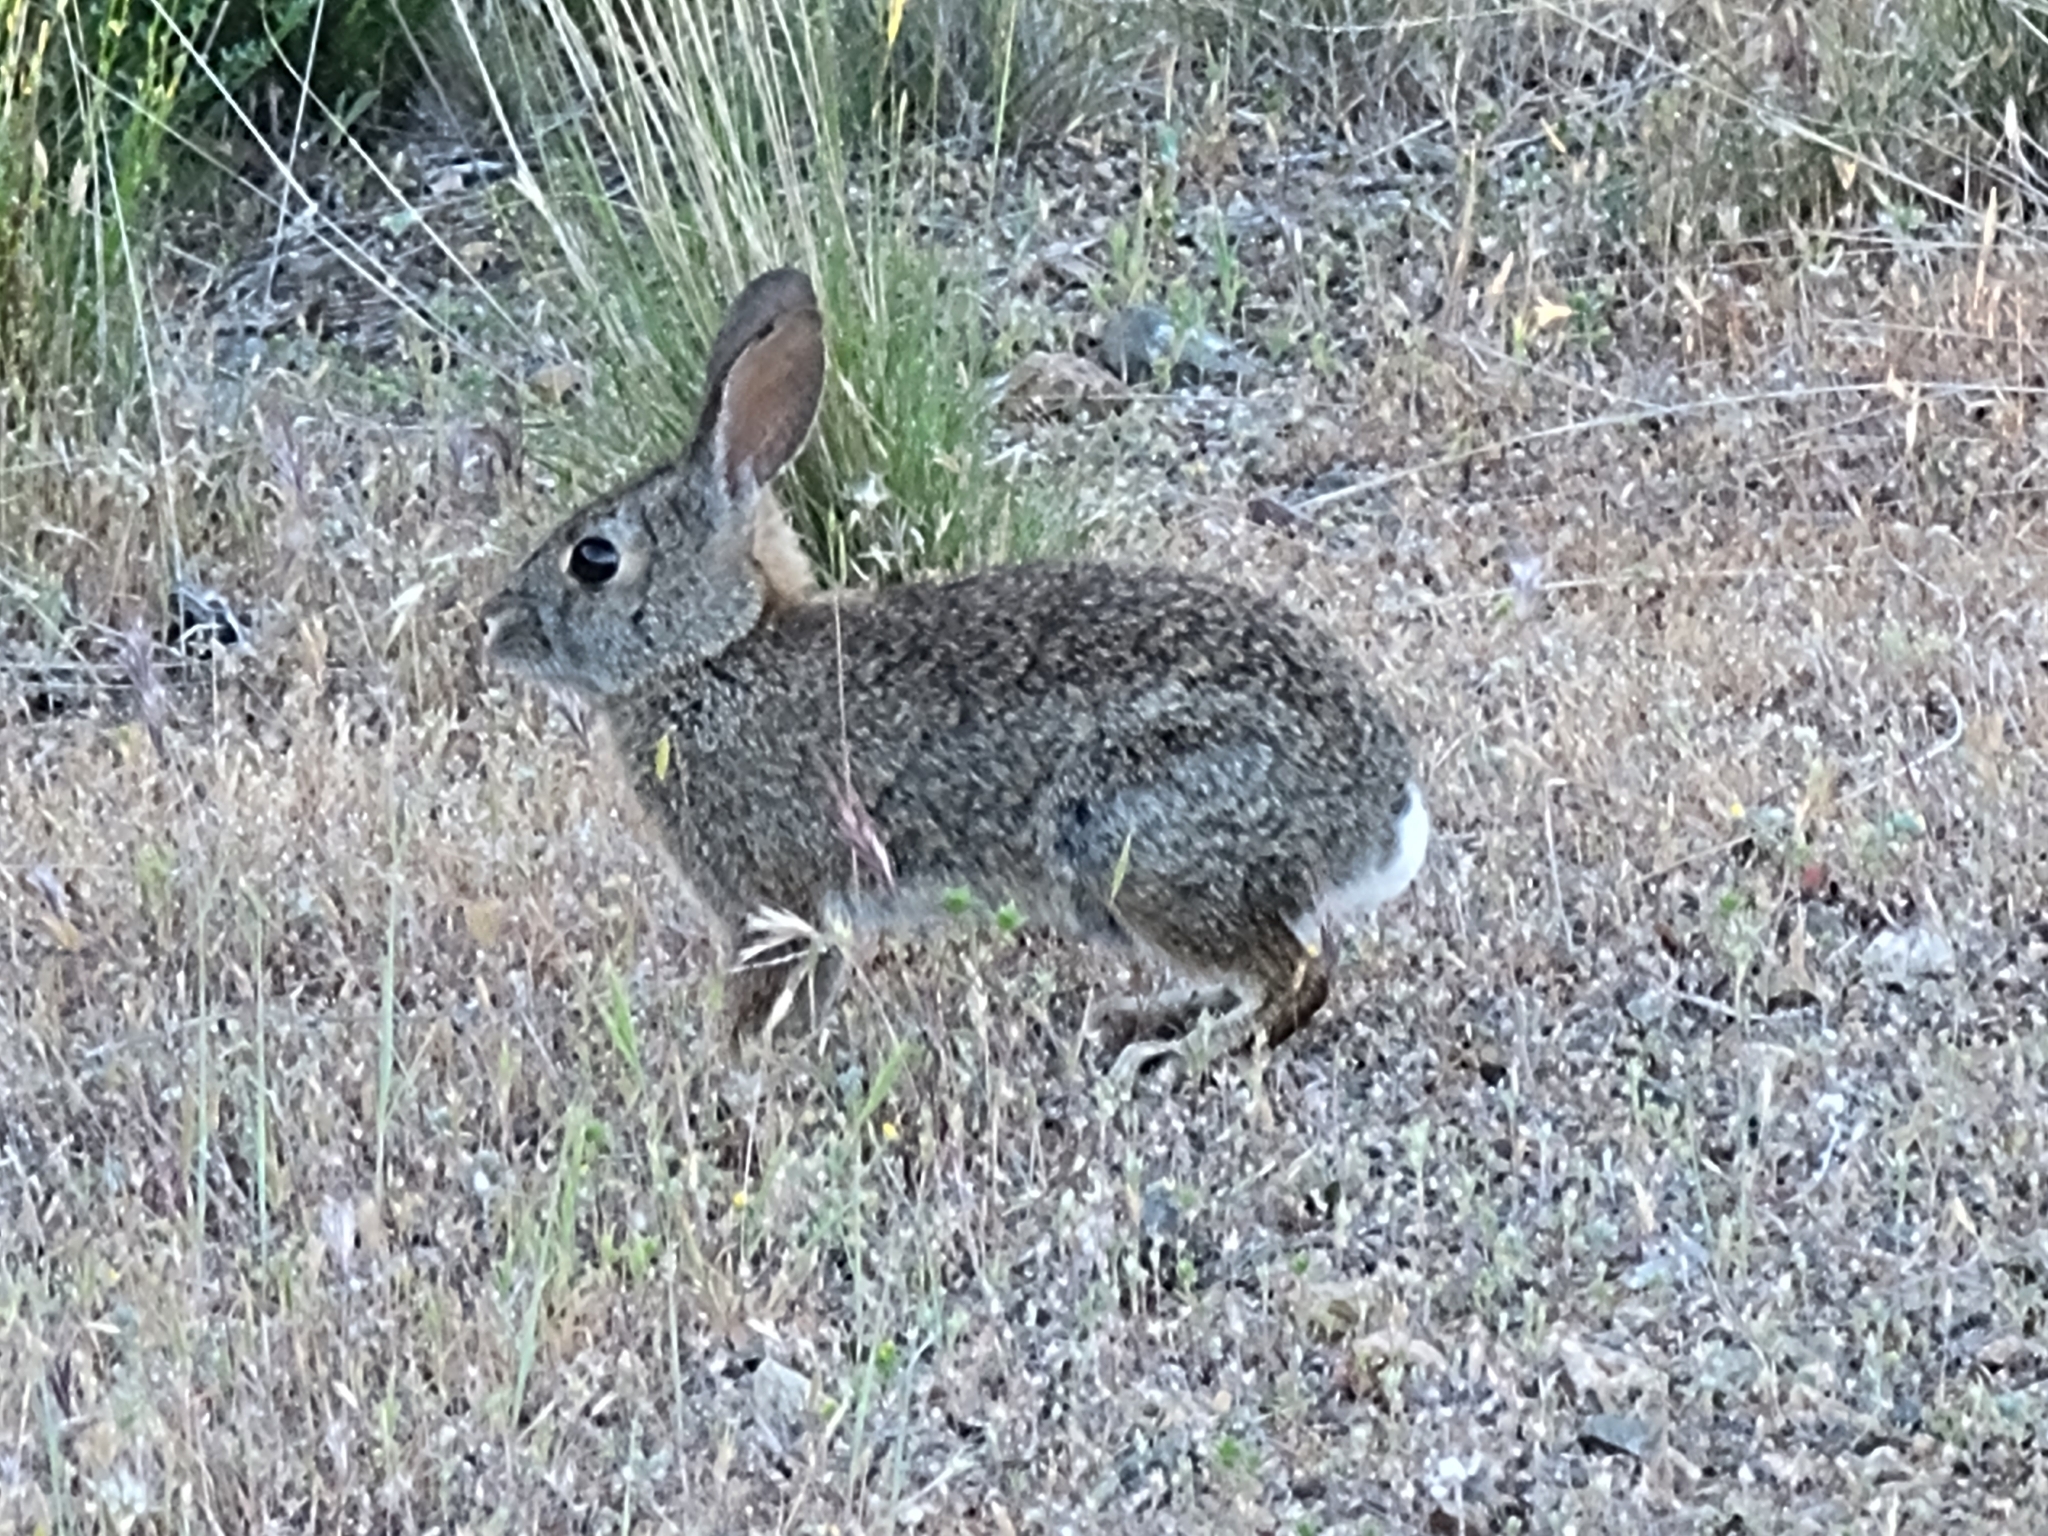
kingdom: Animalia
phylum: Chordata
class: Mammalia
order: Lagomorpha
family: Leporidae
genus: Sylvilagus
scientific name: Sylvilagus bachmani
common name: Brush rabbit
